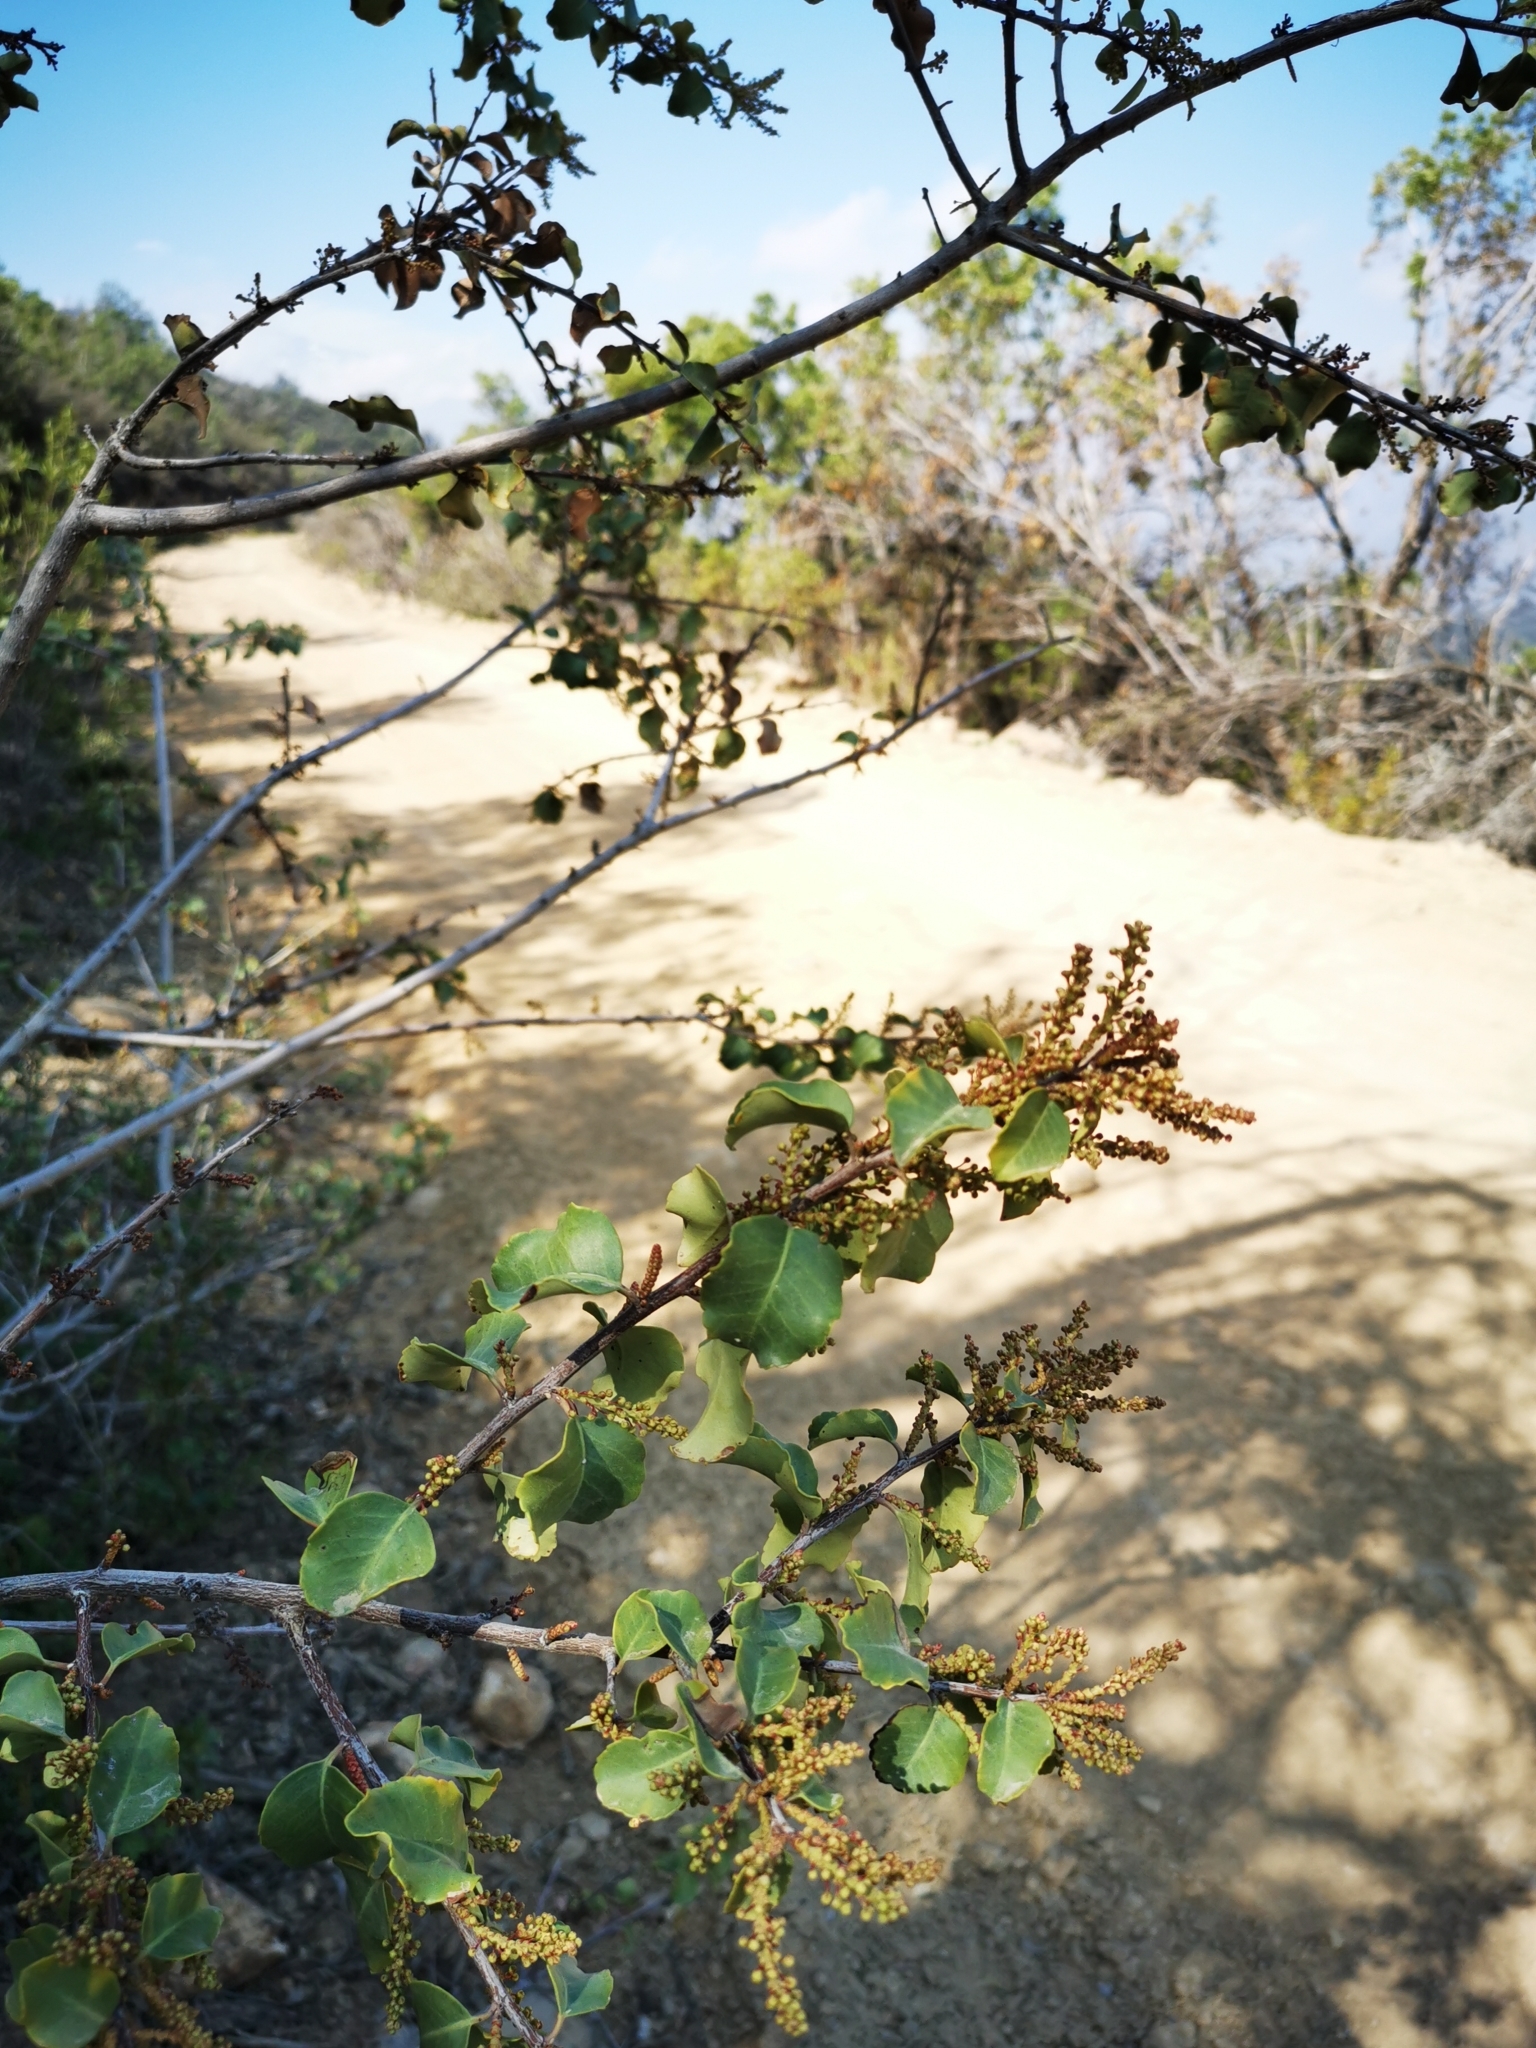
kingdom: Plantae
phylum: Tracheophyta
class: Magnoliopsida
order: Sapindales
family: Anacardiaceae
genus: Schinus
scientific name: Schinus montana
